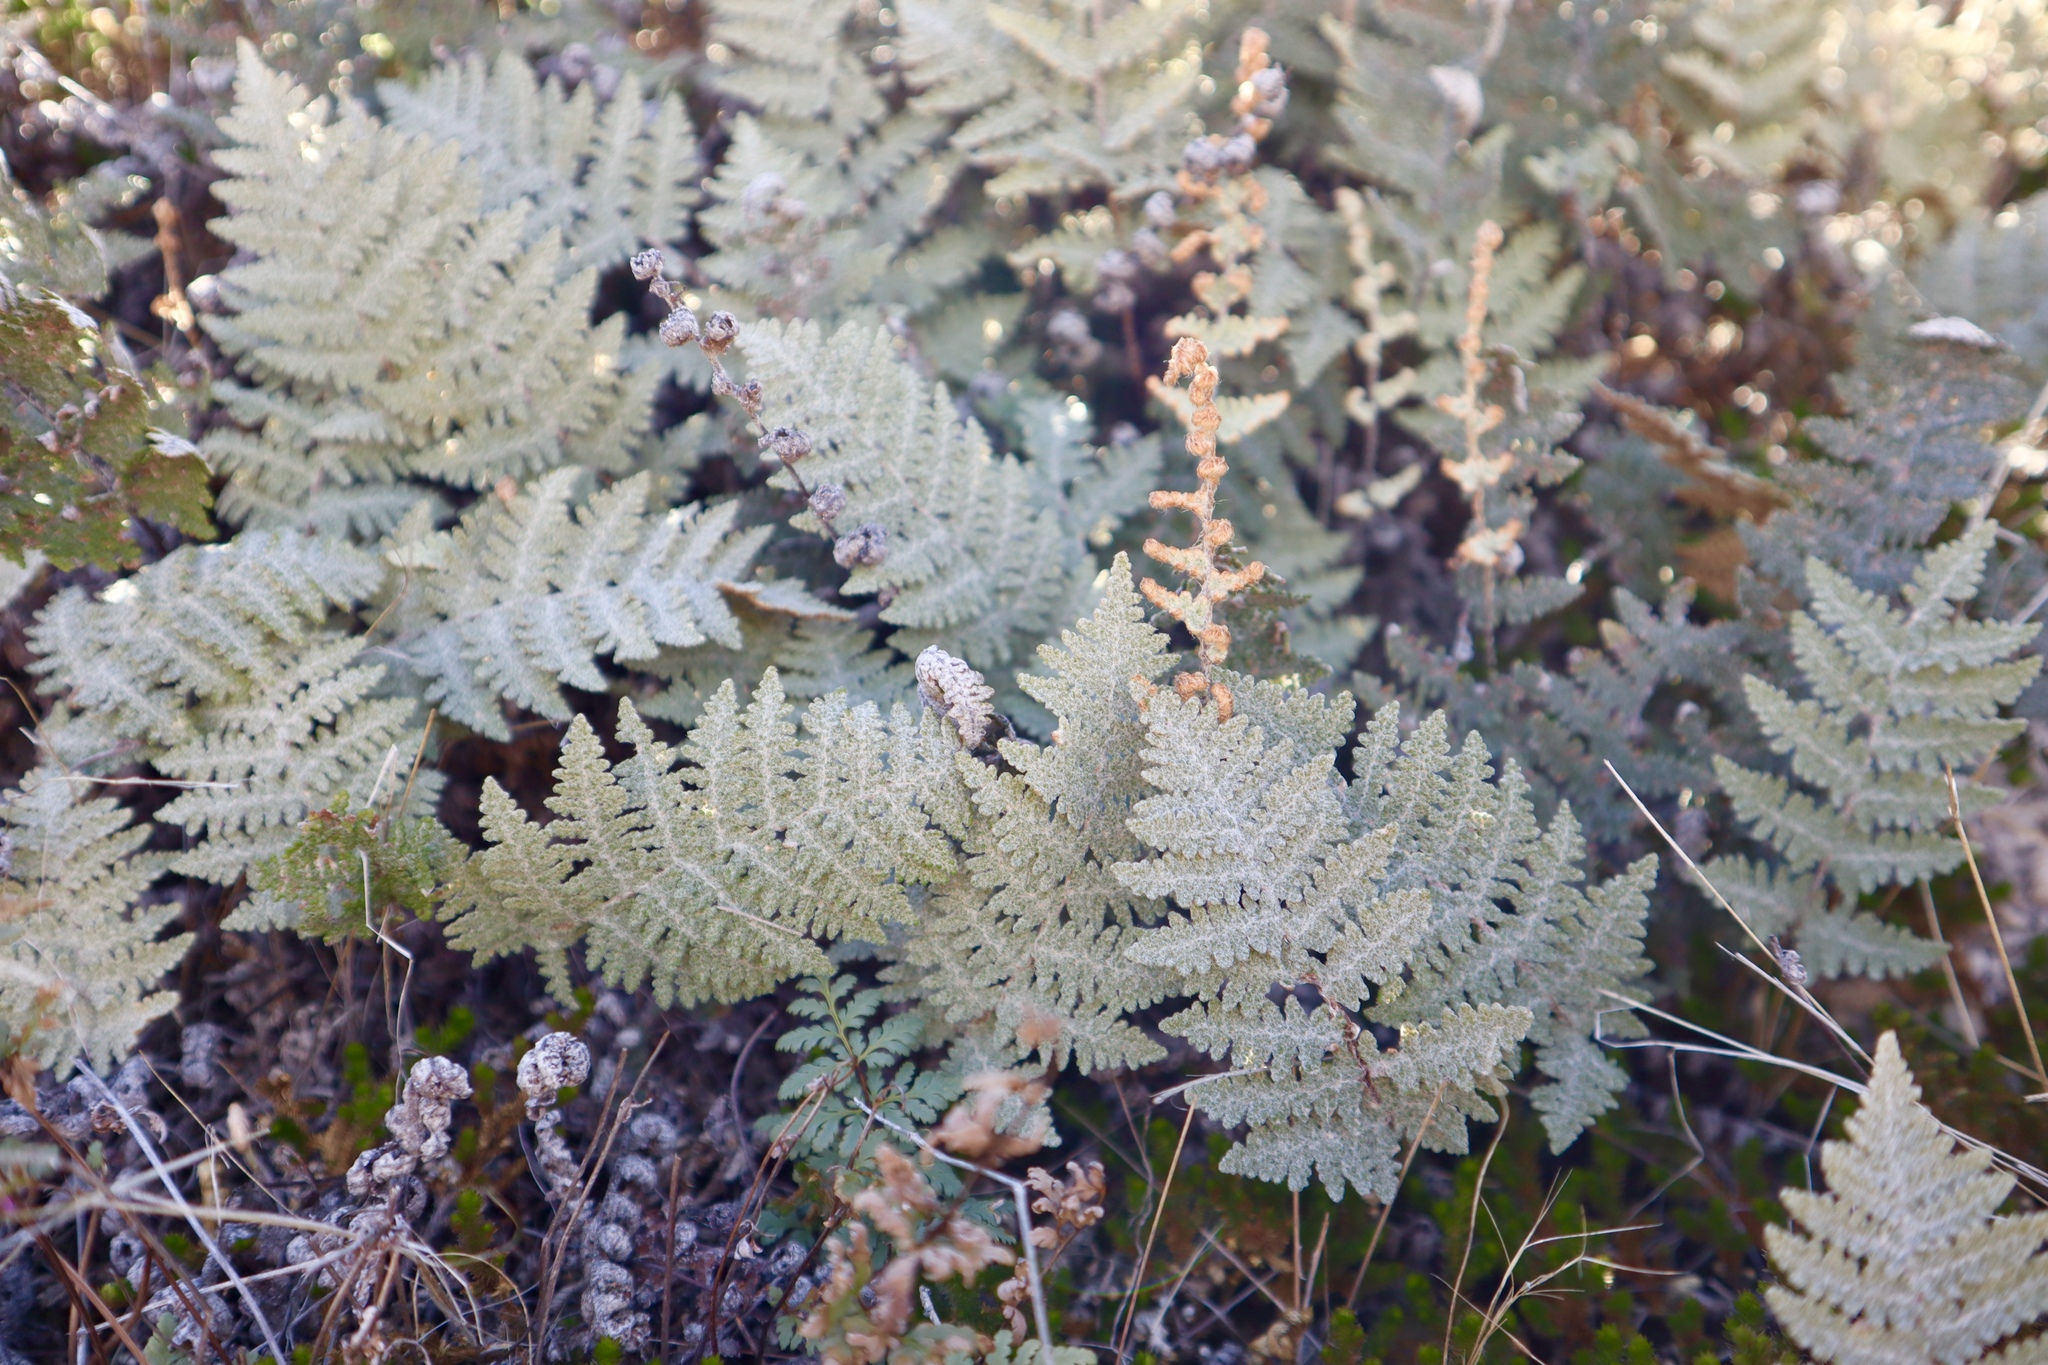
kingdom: Plantae
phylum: Tracheophyta
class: Polypodiopsida
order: Polypodiales
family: Pteridaceae
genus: Myriopteris
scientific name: Myriopteris lindheimeri
